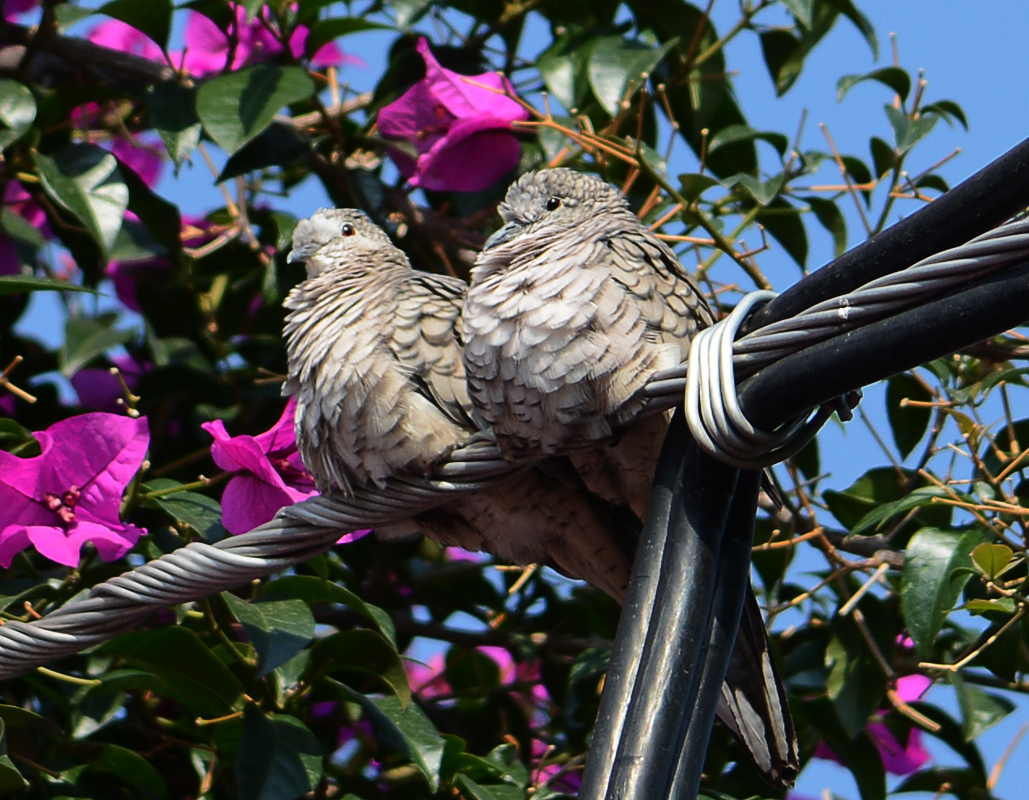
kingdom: Animalia
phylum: Chordata
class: Aves
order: Columbiformes
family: Columbidae
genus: Columbina
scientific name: Columbina inca
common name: Inca dove
